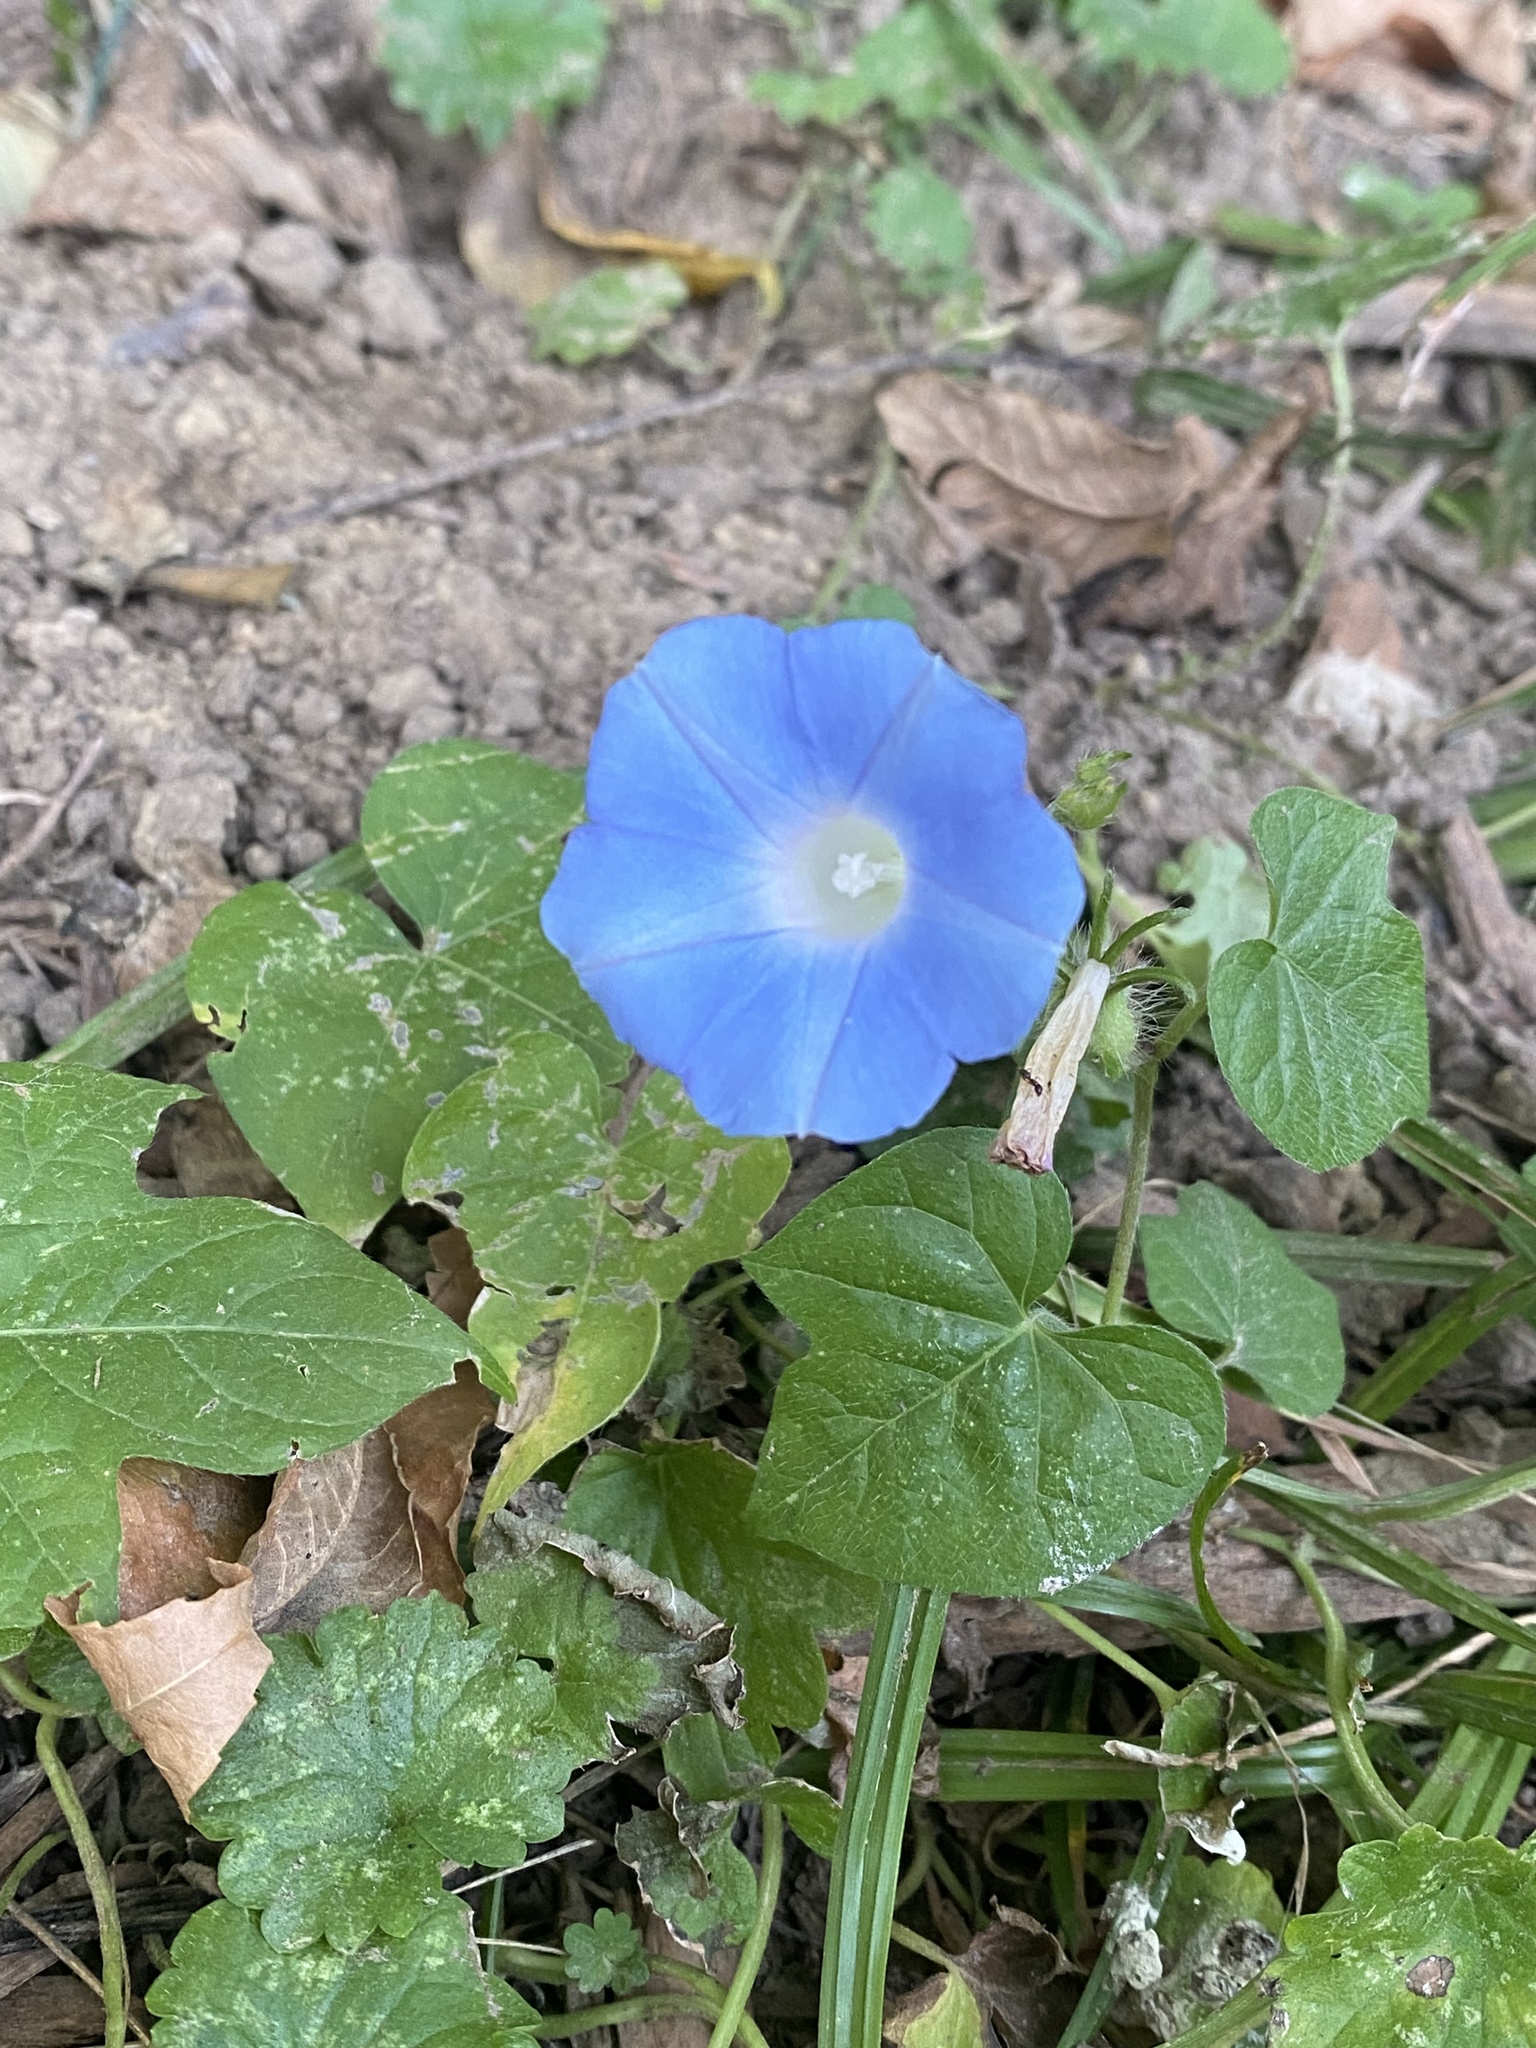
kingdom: Plantae
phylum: Tracheophyta
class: Magnoliopsida
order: Solanales
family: Convolvulaceae
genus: Ipomoea
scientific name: Ipomoea hederacea
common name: Ivy-leaved morning-glory
